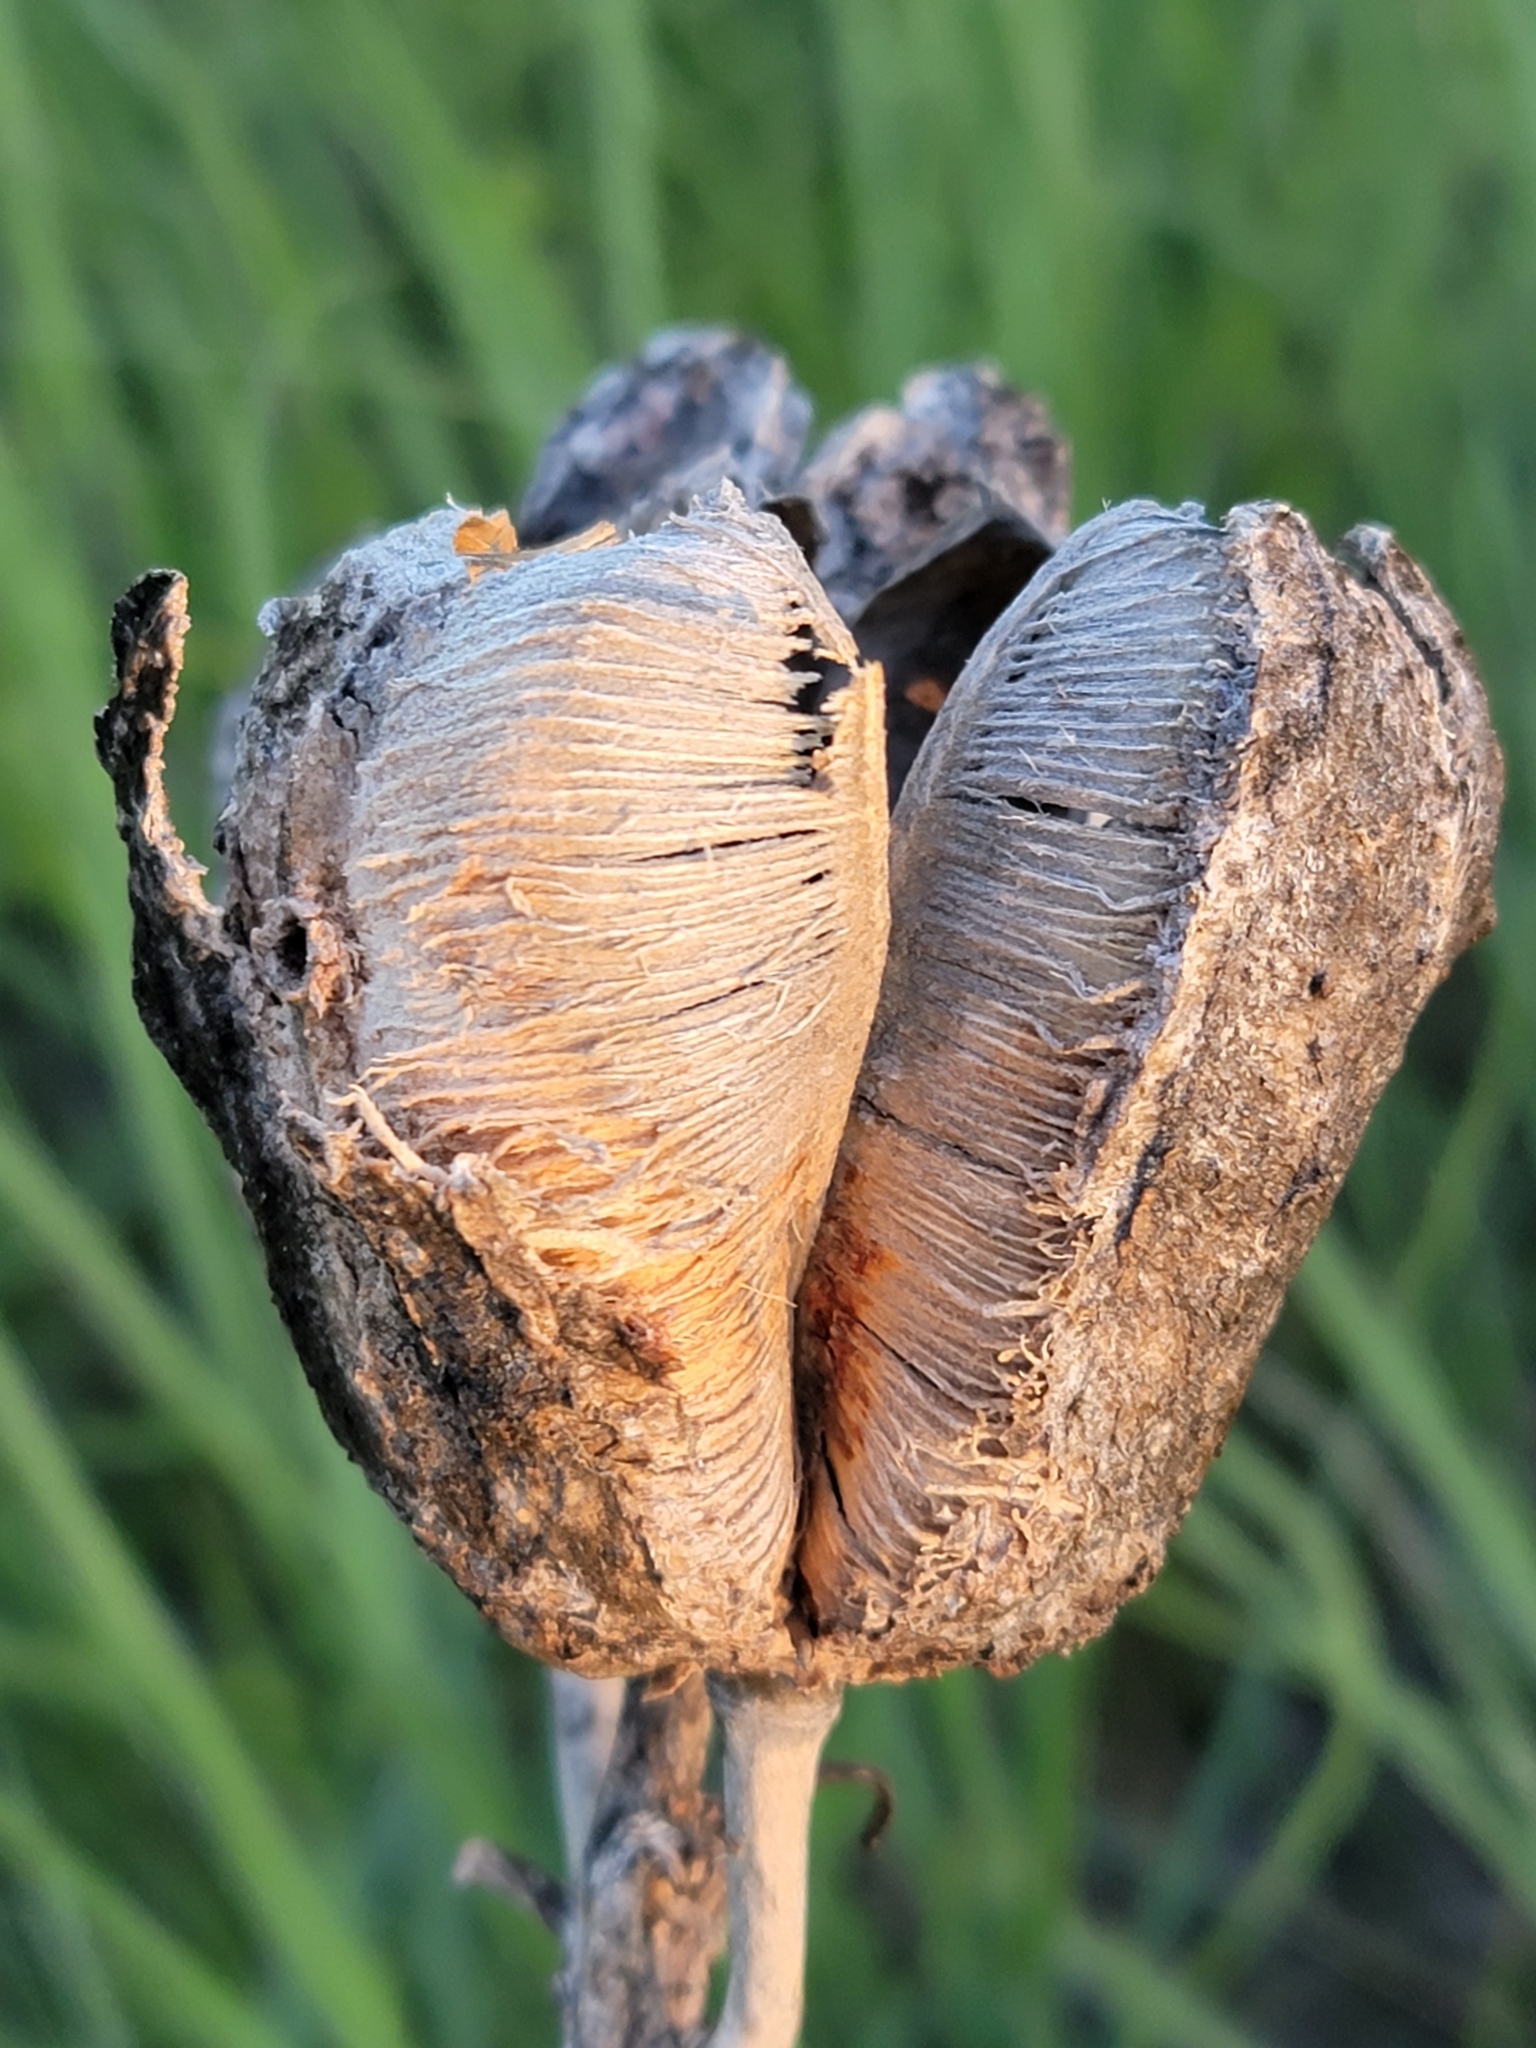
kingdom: Plantae
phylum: Tracheophyta
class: Liliopsida
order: Asparagales
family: Asparagaceae
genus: Yucca
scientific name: Yucca glauca
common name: Great plains yucca
